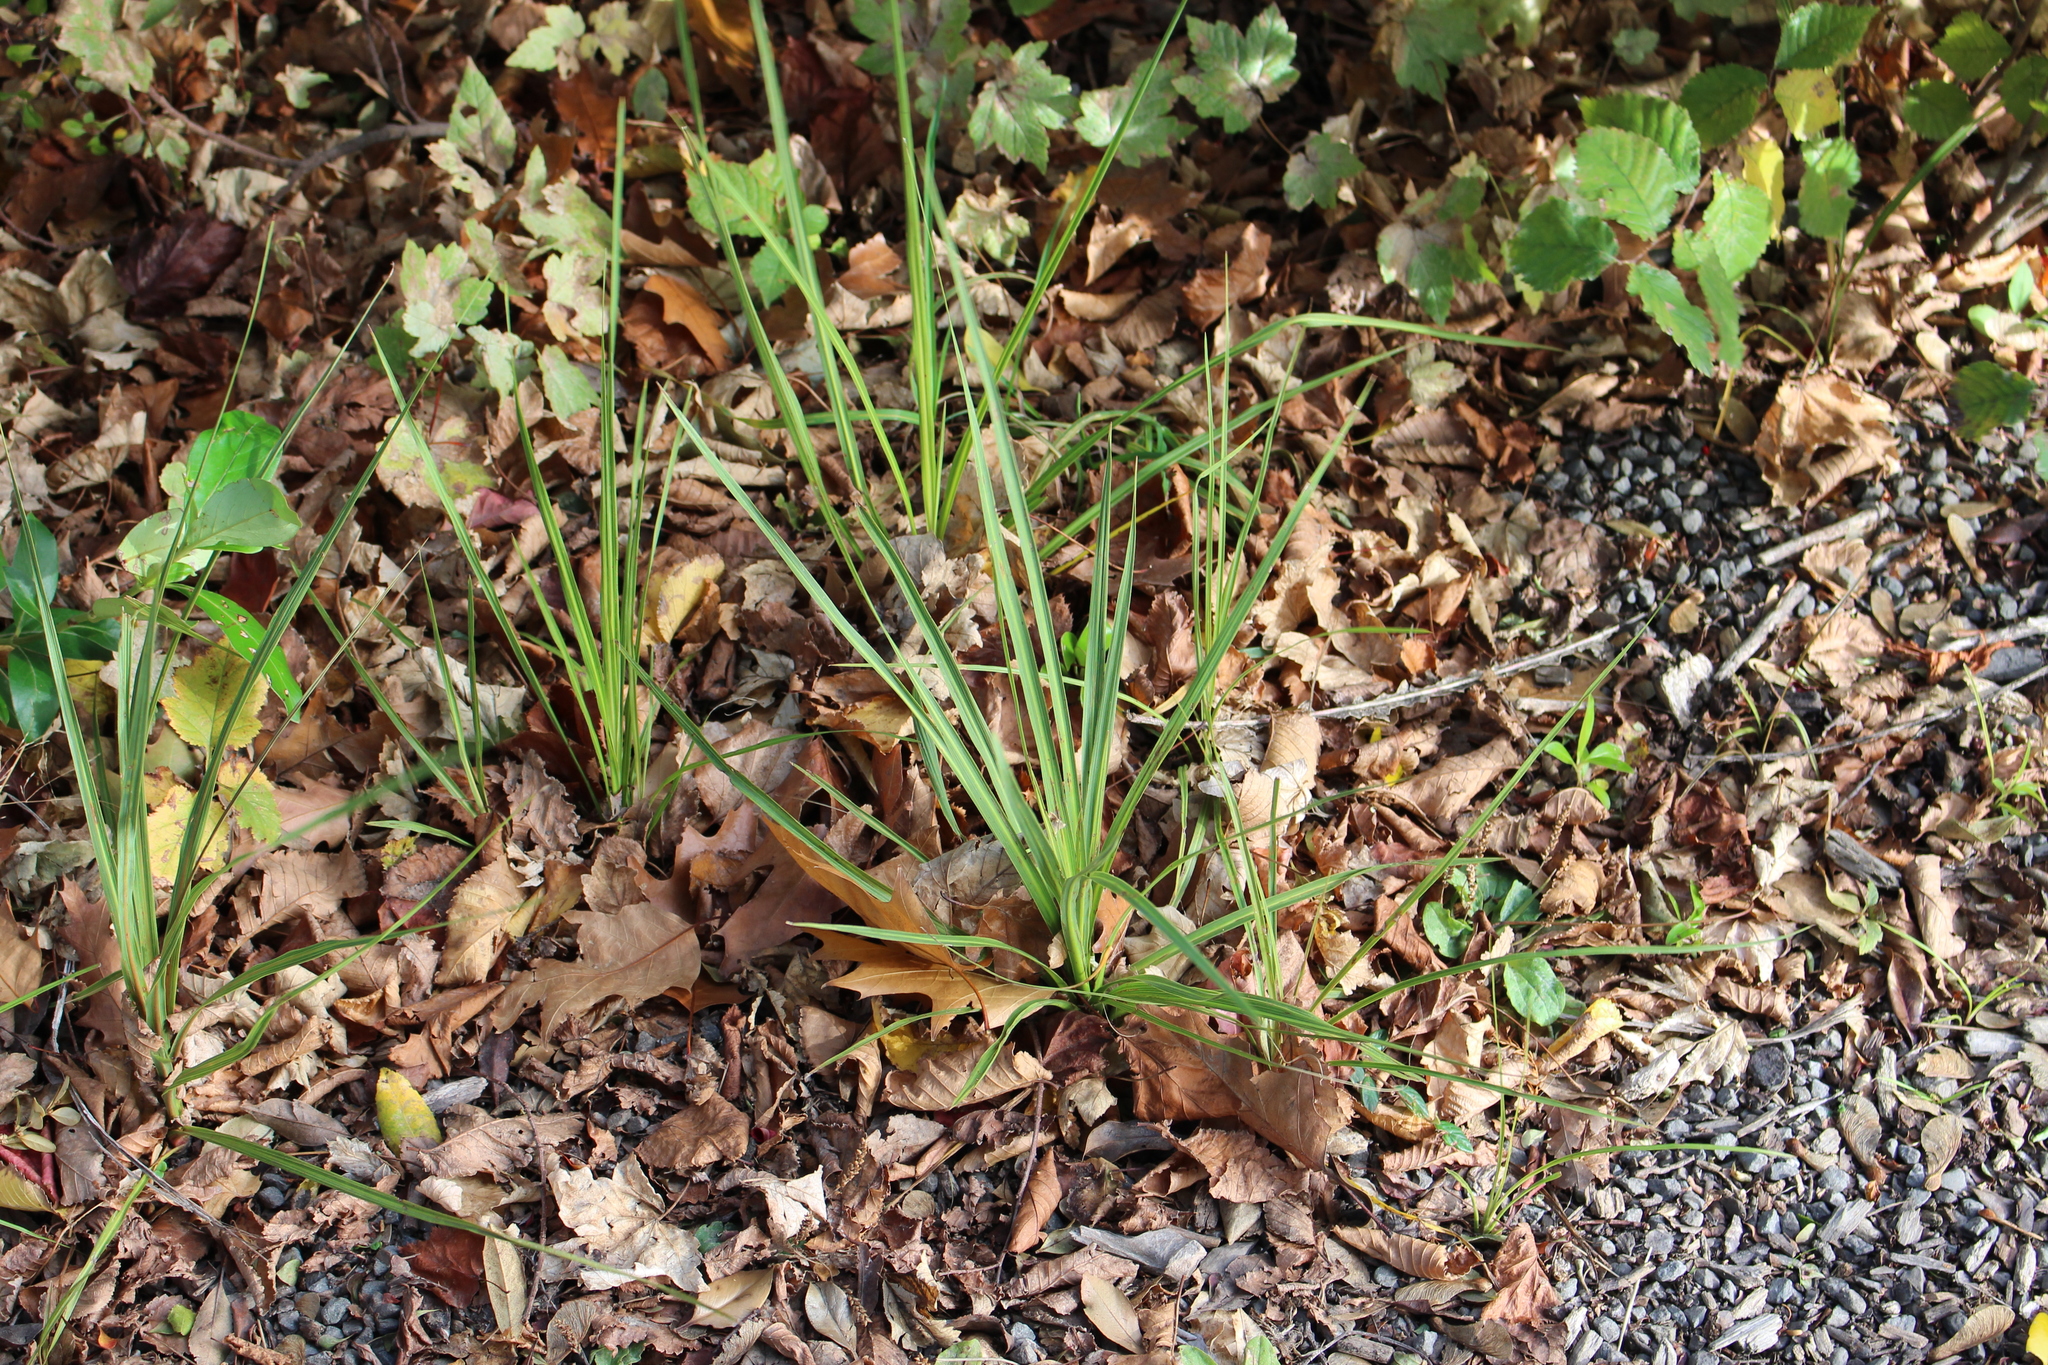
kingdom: Plantae
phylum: Tracheophyta
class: Liliopsida
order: Asparagales
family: Asparagaceae
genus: Cordyline
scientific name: Cordyline australis
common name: Cabbage-palm
